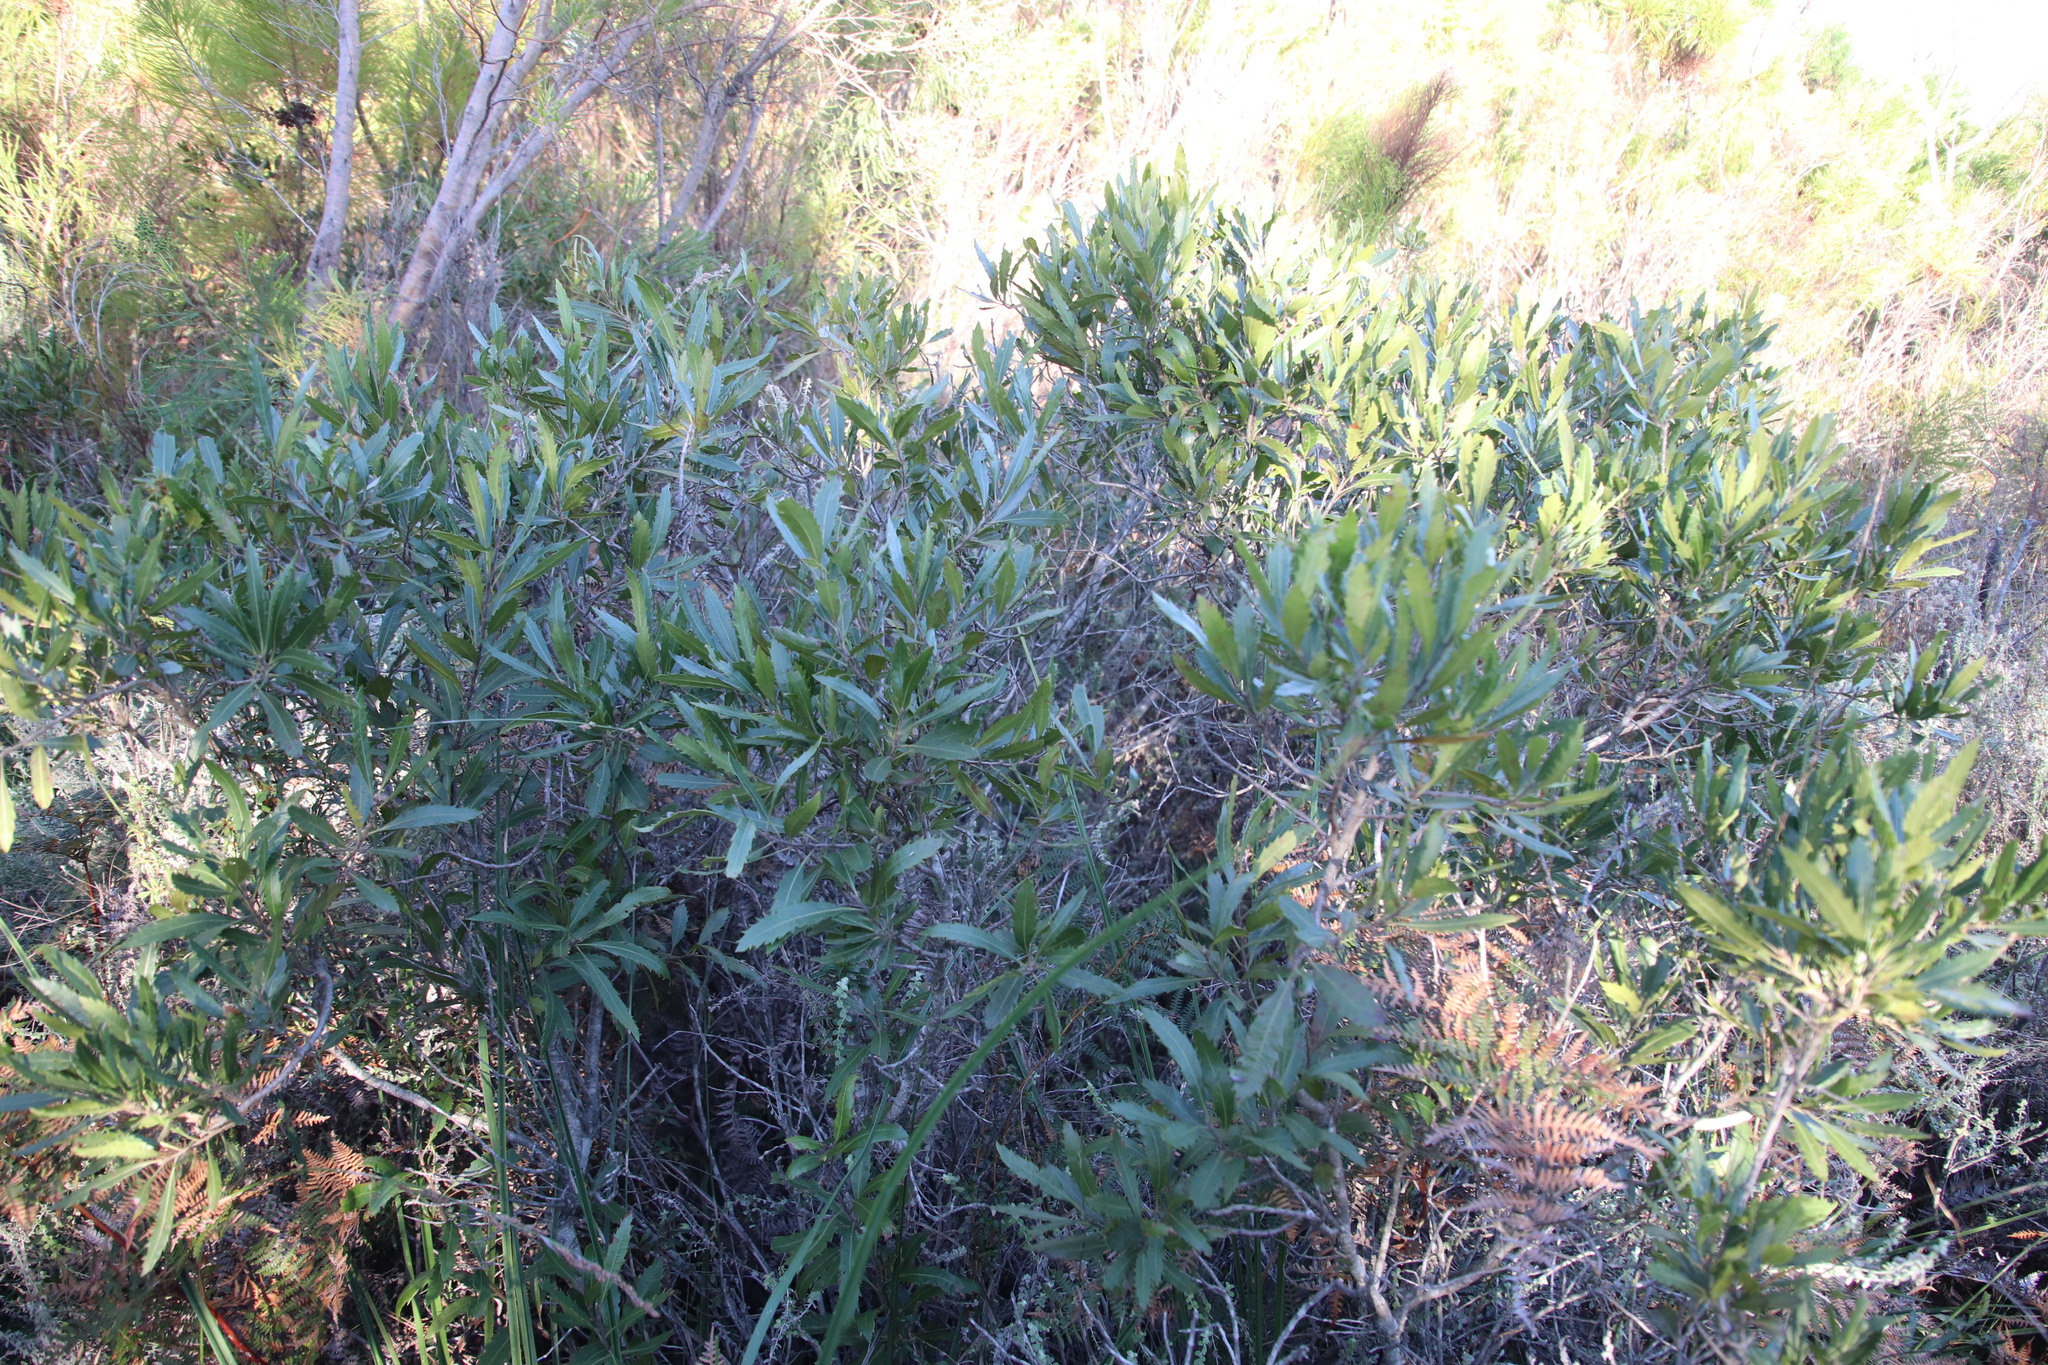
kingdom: Plantae
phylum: Tracheophyta
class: Magnoliopsida
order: Fagales
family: Myricaceae
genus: Morella
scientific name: Morella serrata
